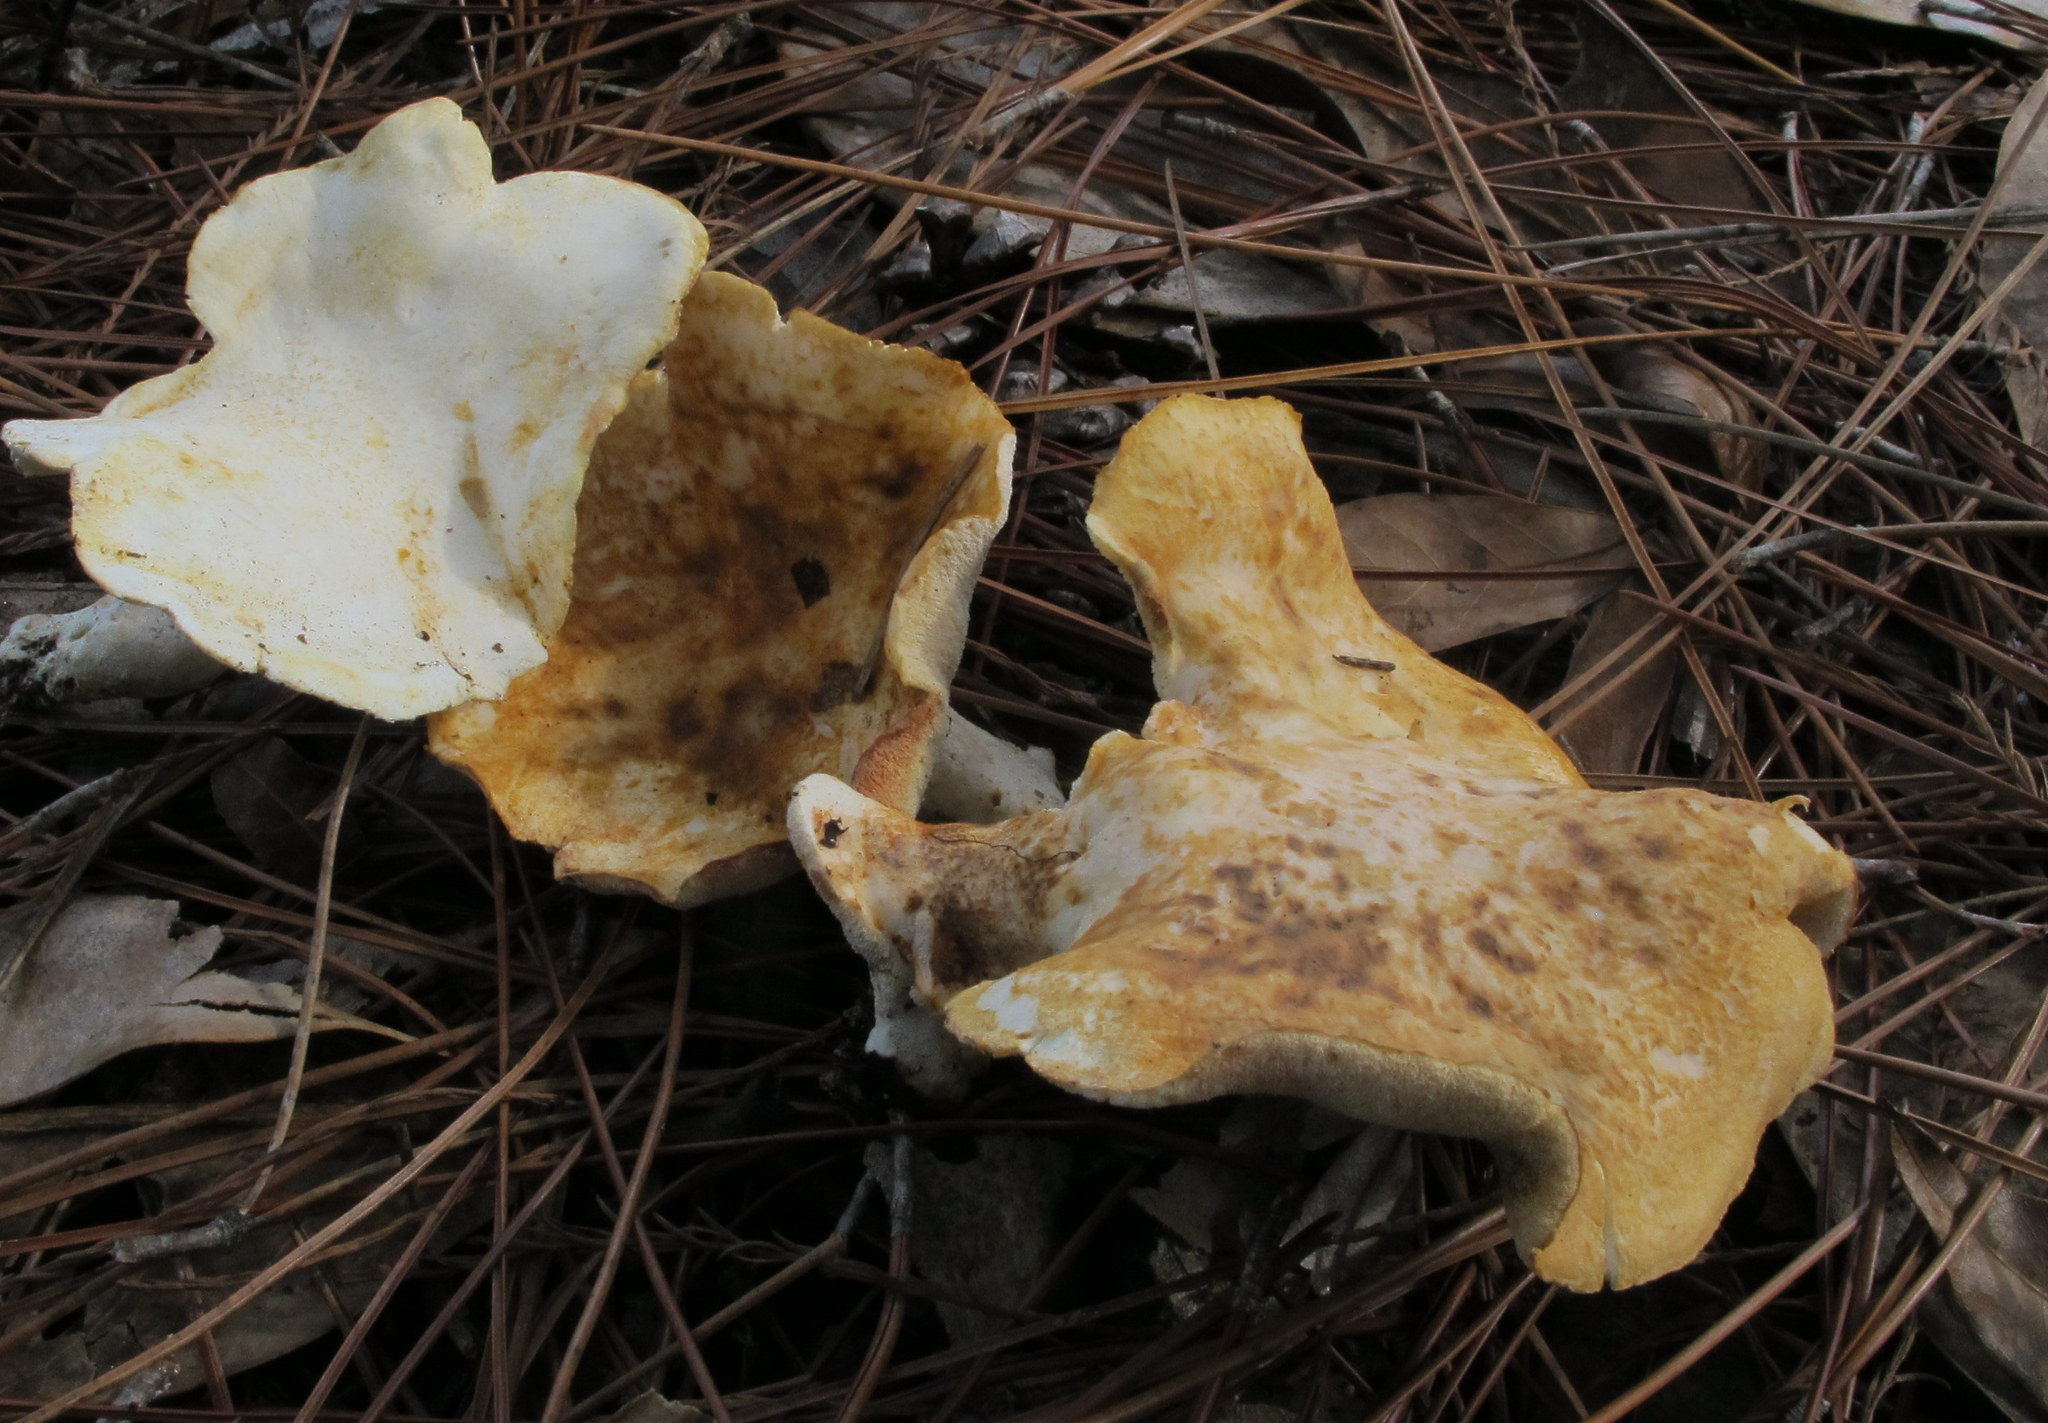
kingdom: Fungi
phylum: Basidiomycota
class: Agaricomycetes
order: Russulales
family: Albatrellaceae
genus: Albatrellus
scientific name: Albatrellus subrubescens
